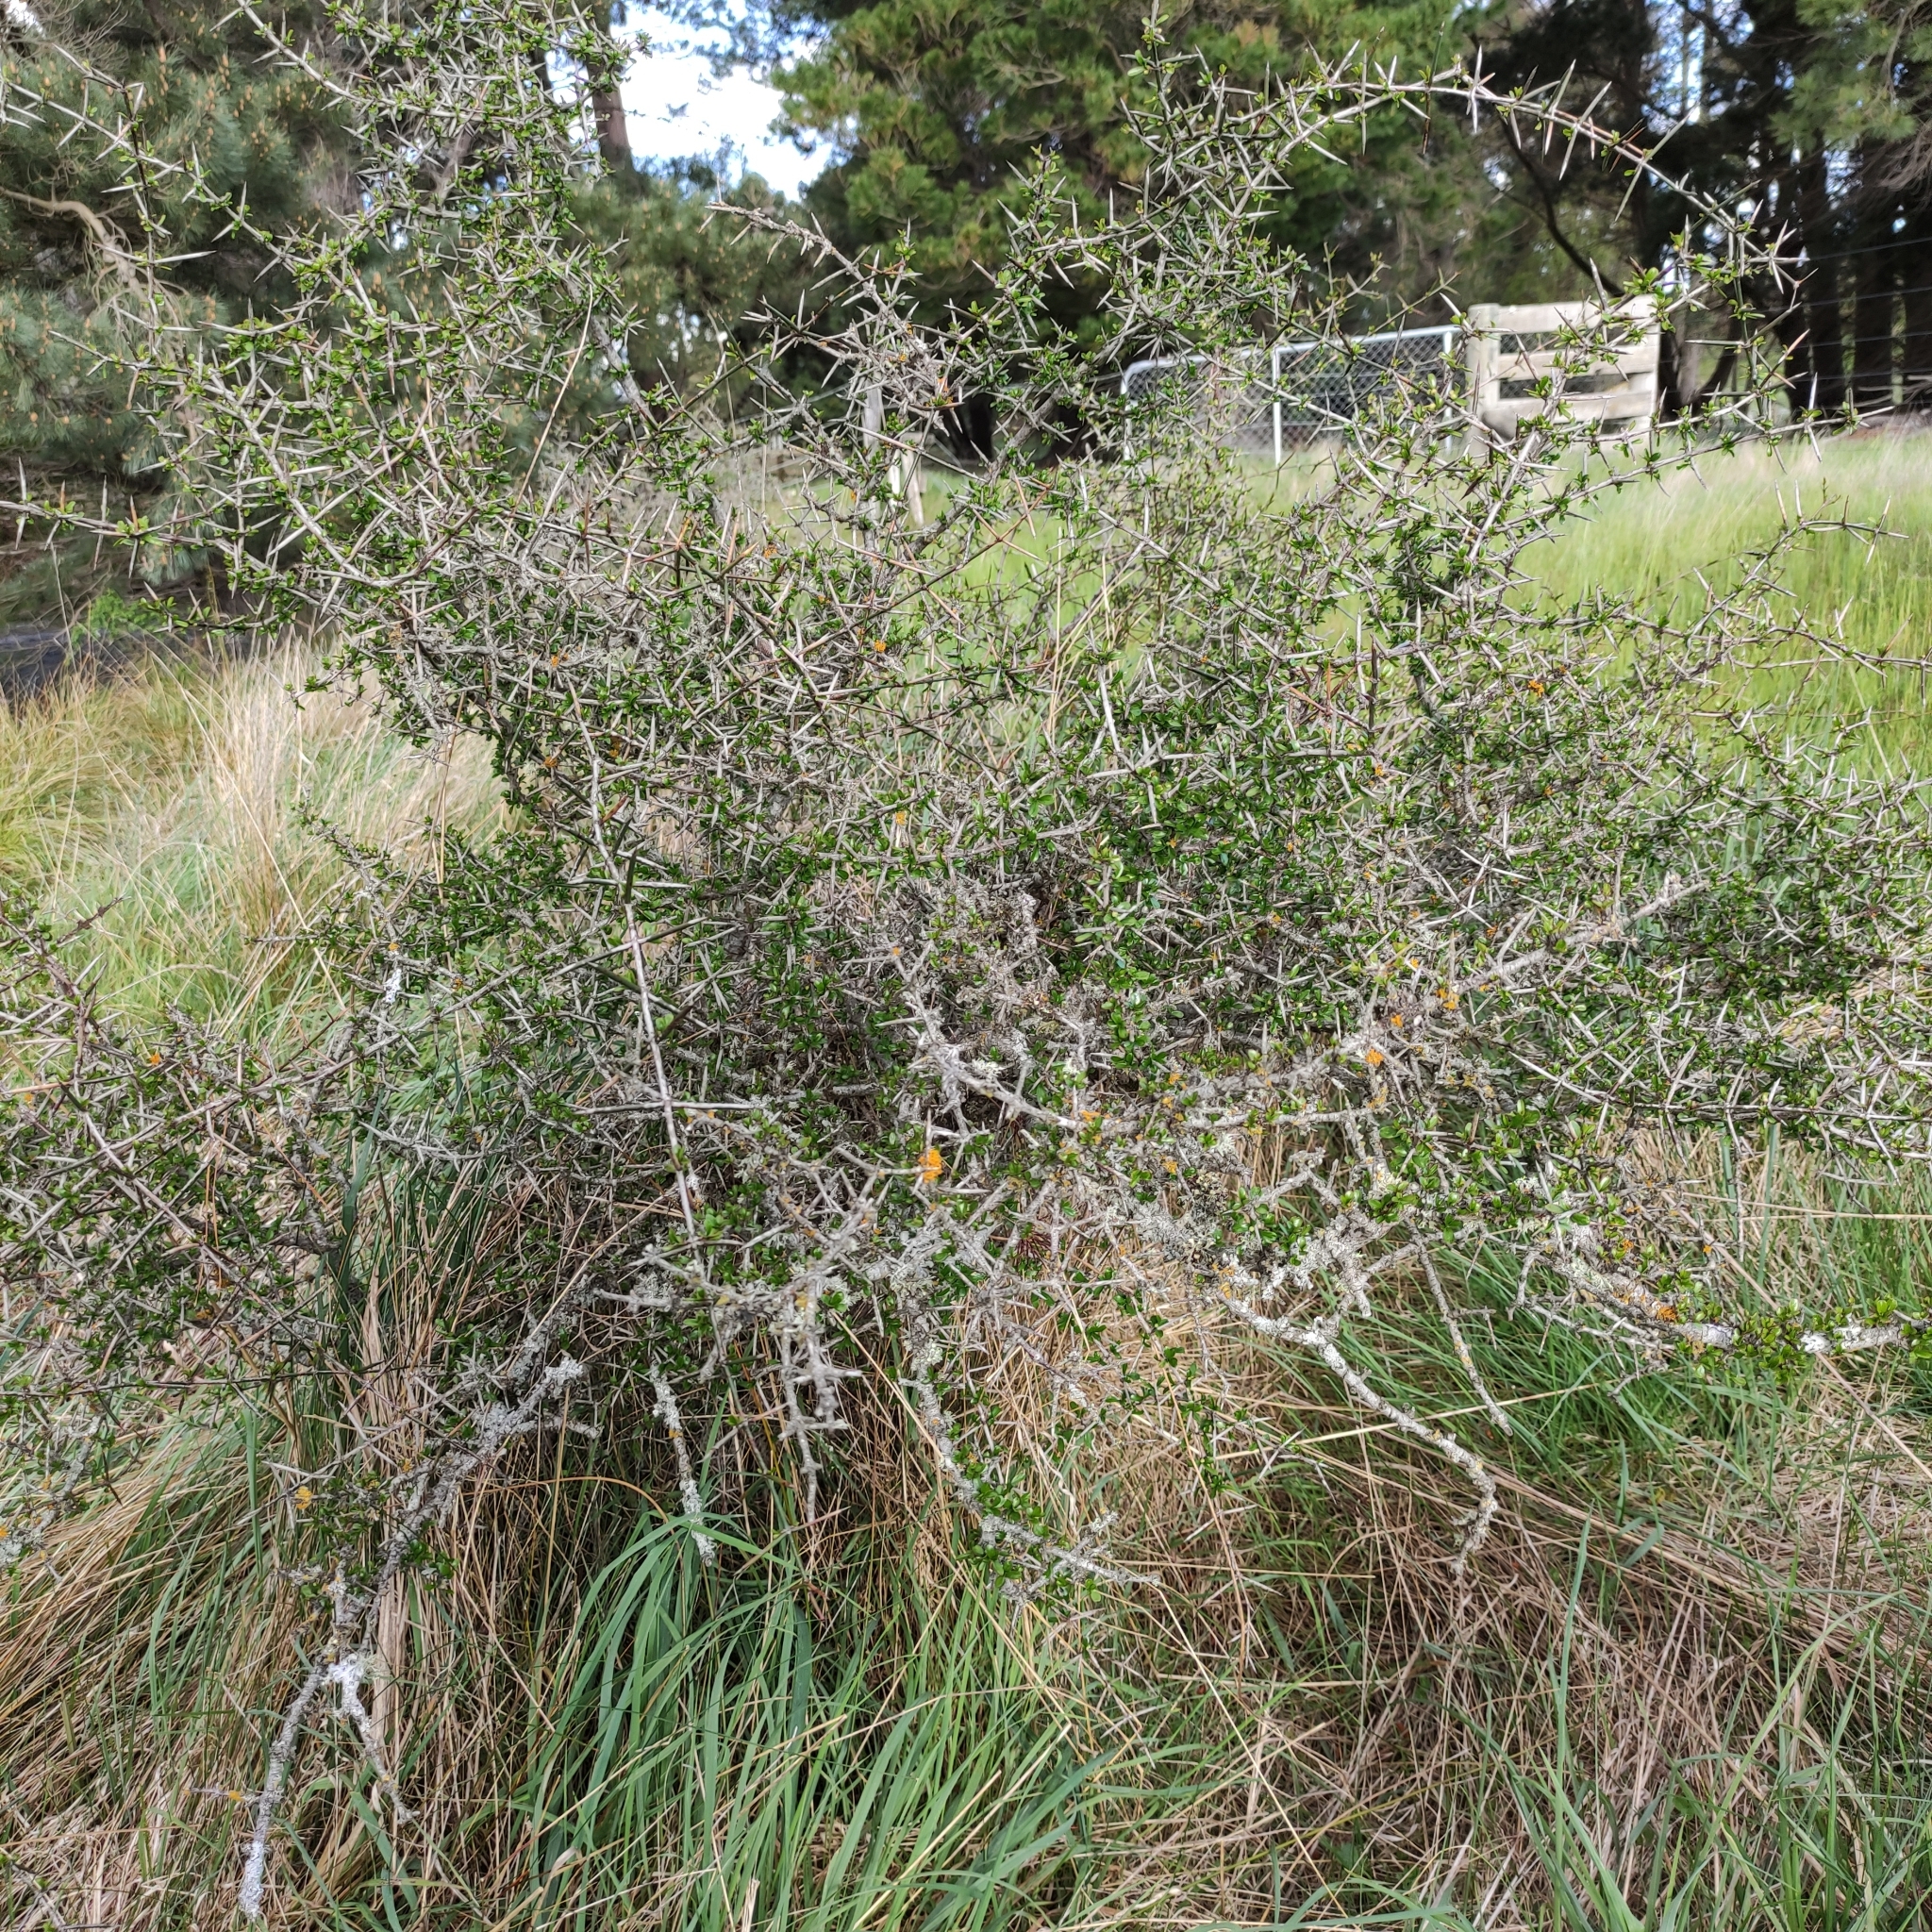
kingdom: Plantae
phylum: Tracheophyta
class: Magnoliopsida
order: Rosales
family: Rhamnaceae
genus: Discaria
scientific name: Discaria toumatou
